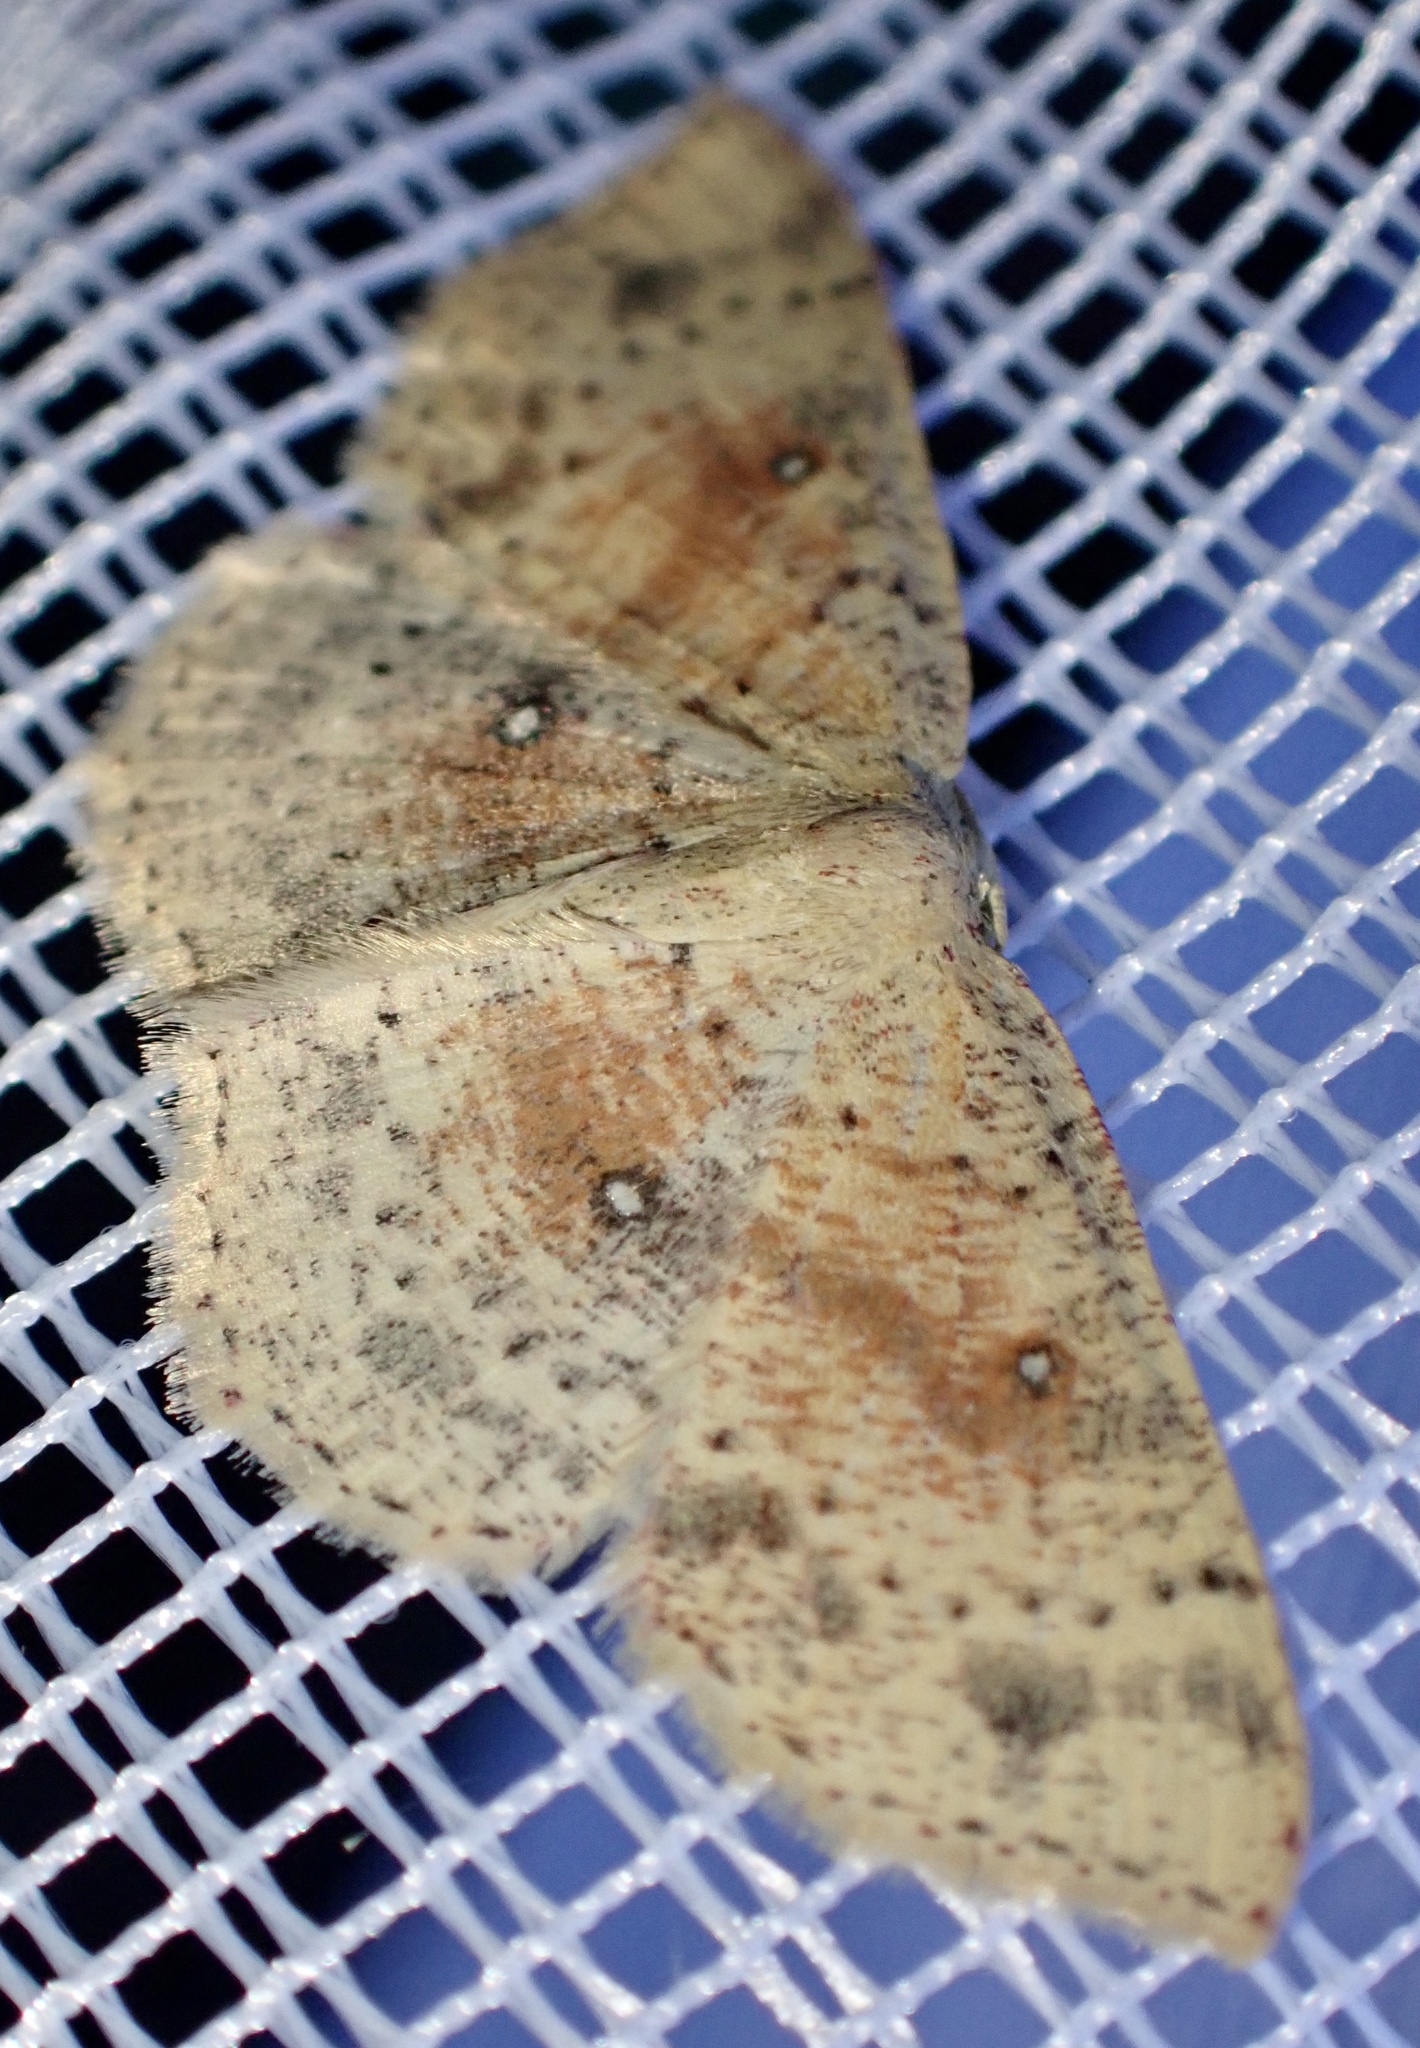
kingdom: Animalia
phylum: Arthropoda
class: Insecta
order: Lepidoptera
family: Geometridae
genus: Cyclophora
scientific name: Cyclophora porata
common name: False mocha
